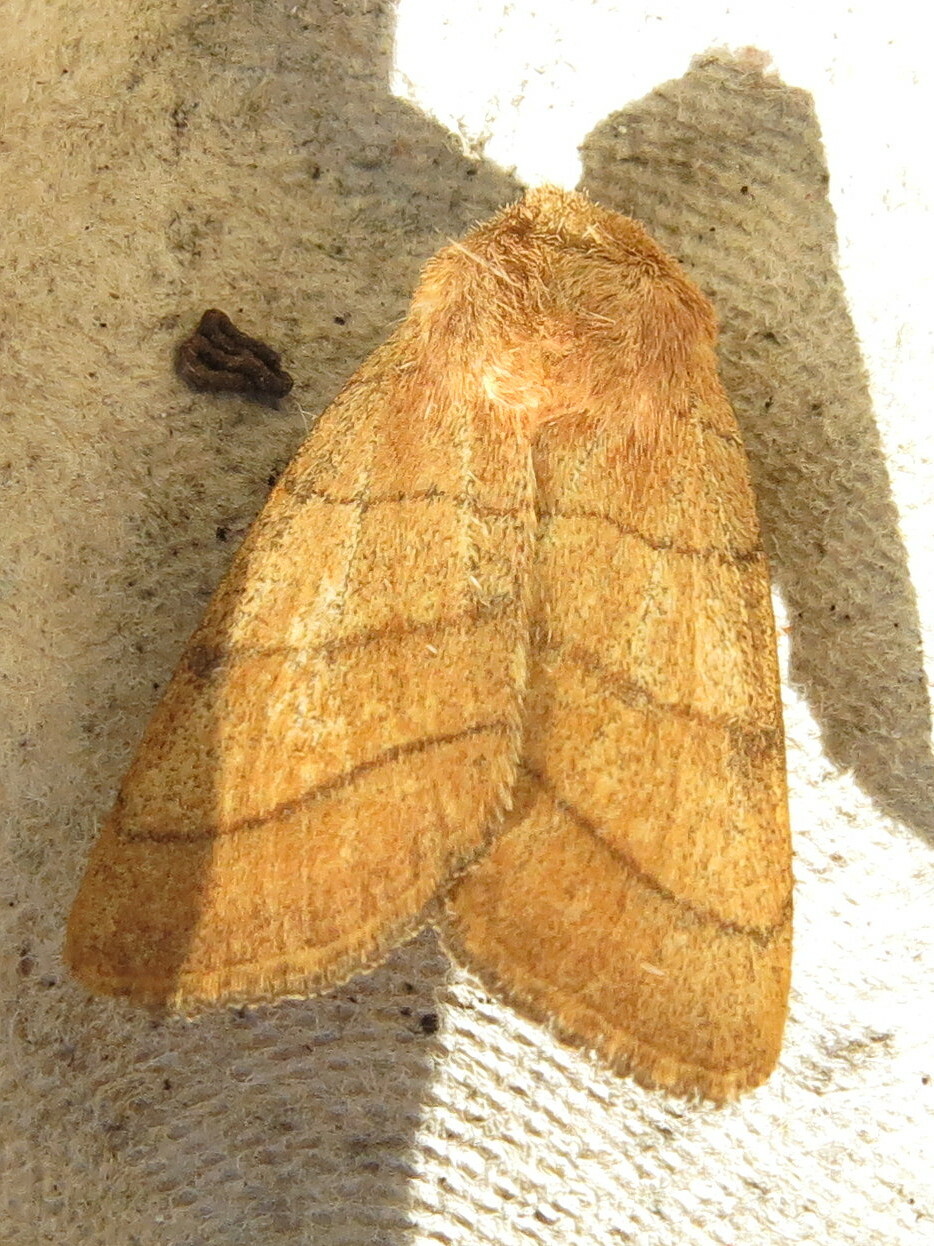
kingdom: Animalia
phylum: Arthropoda
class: Insecta
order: Lepidoptera
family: Noctuidae
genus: Charanyca
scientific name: Charanyca trigrammica
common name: Treble lines
